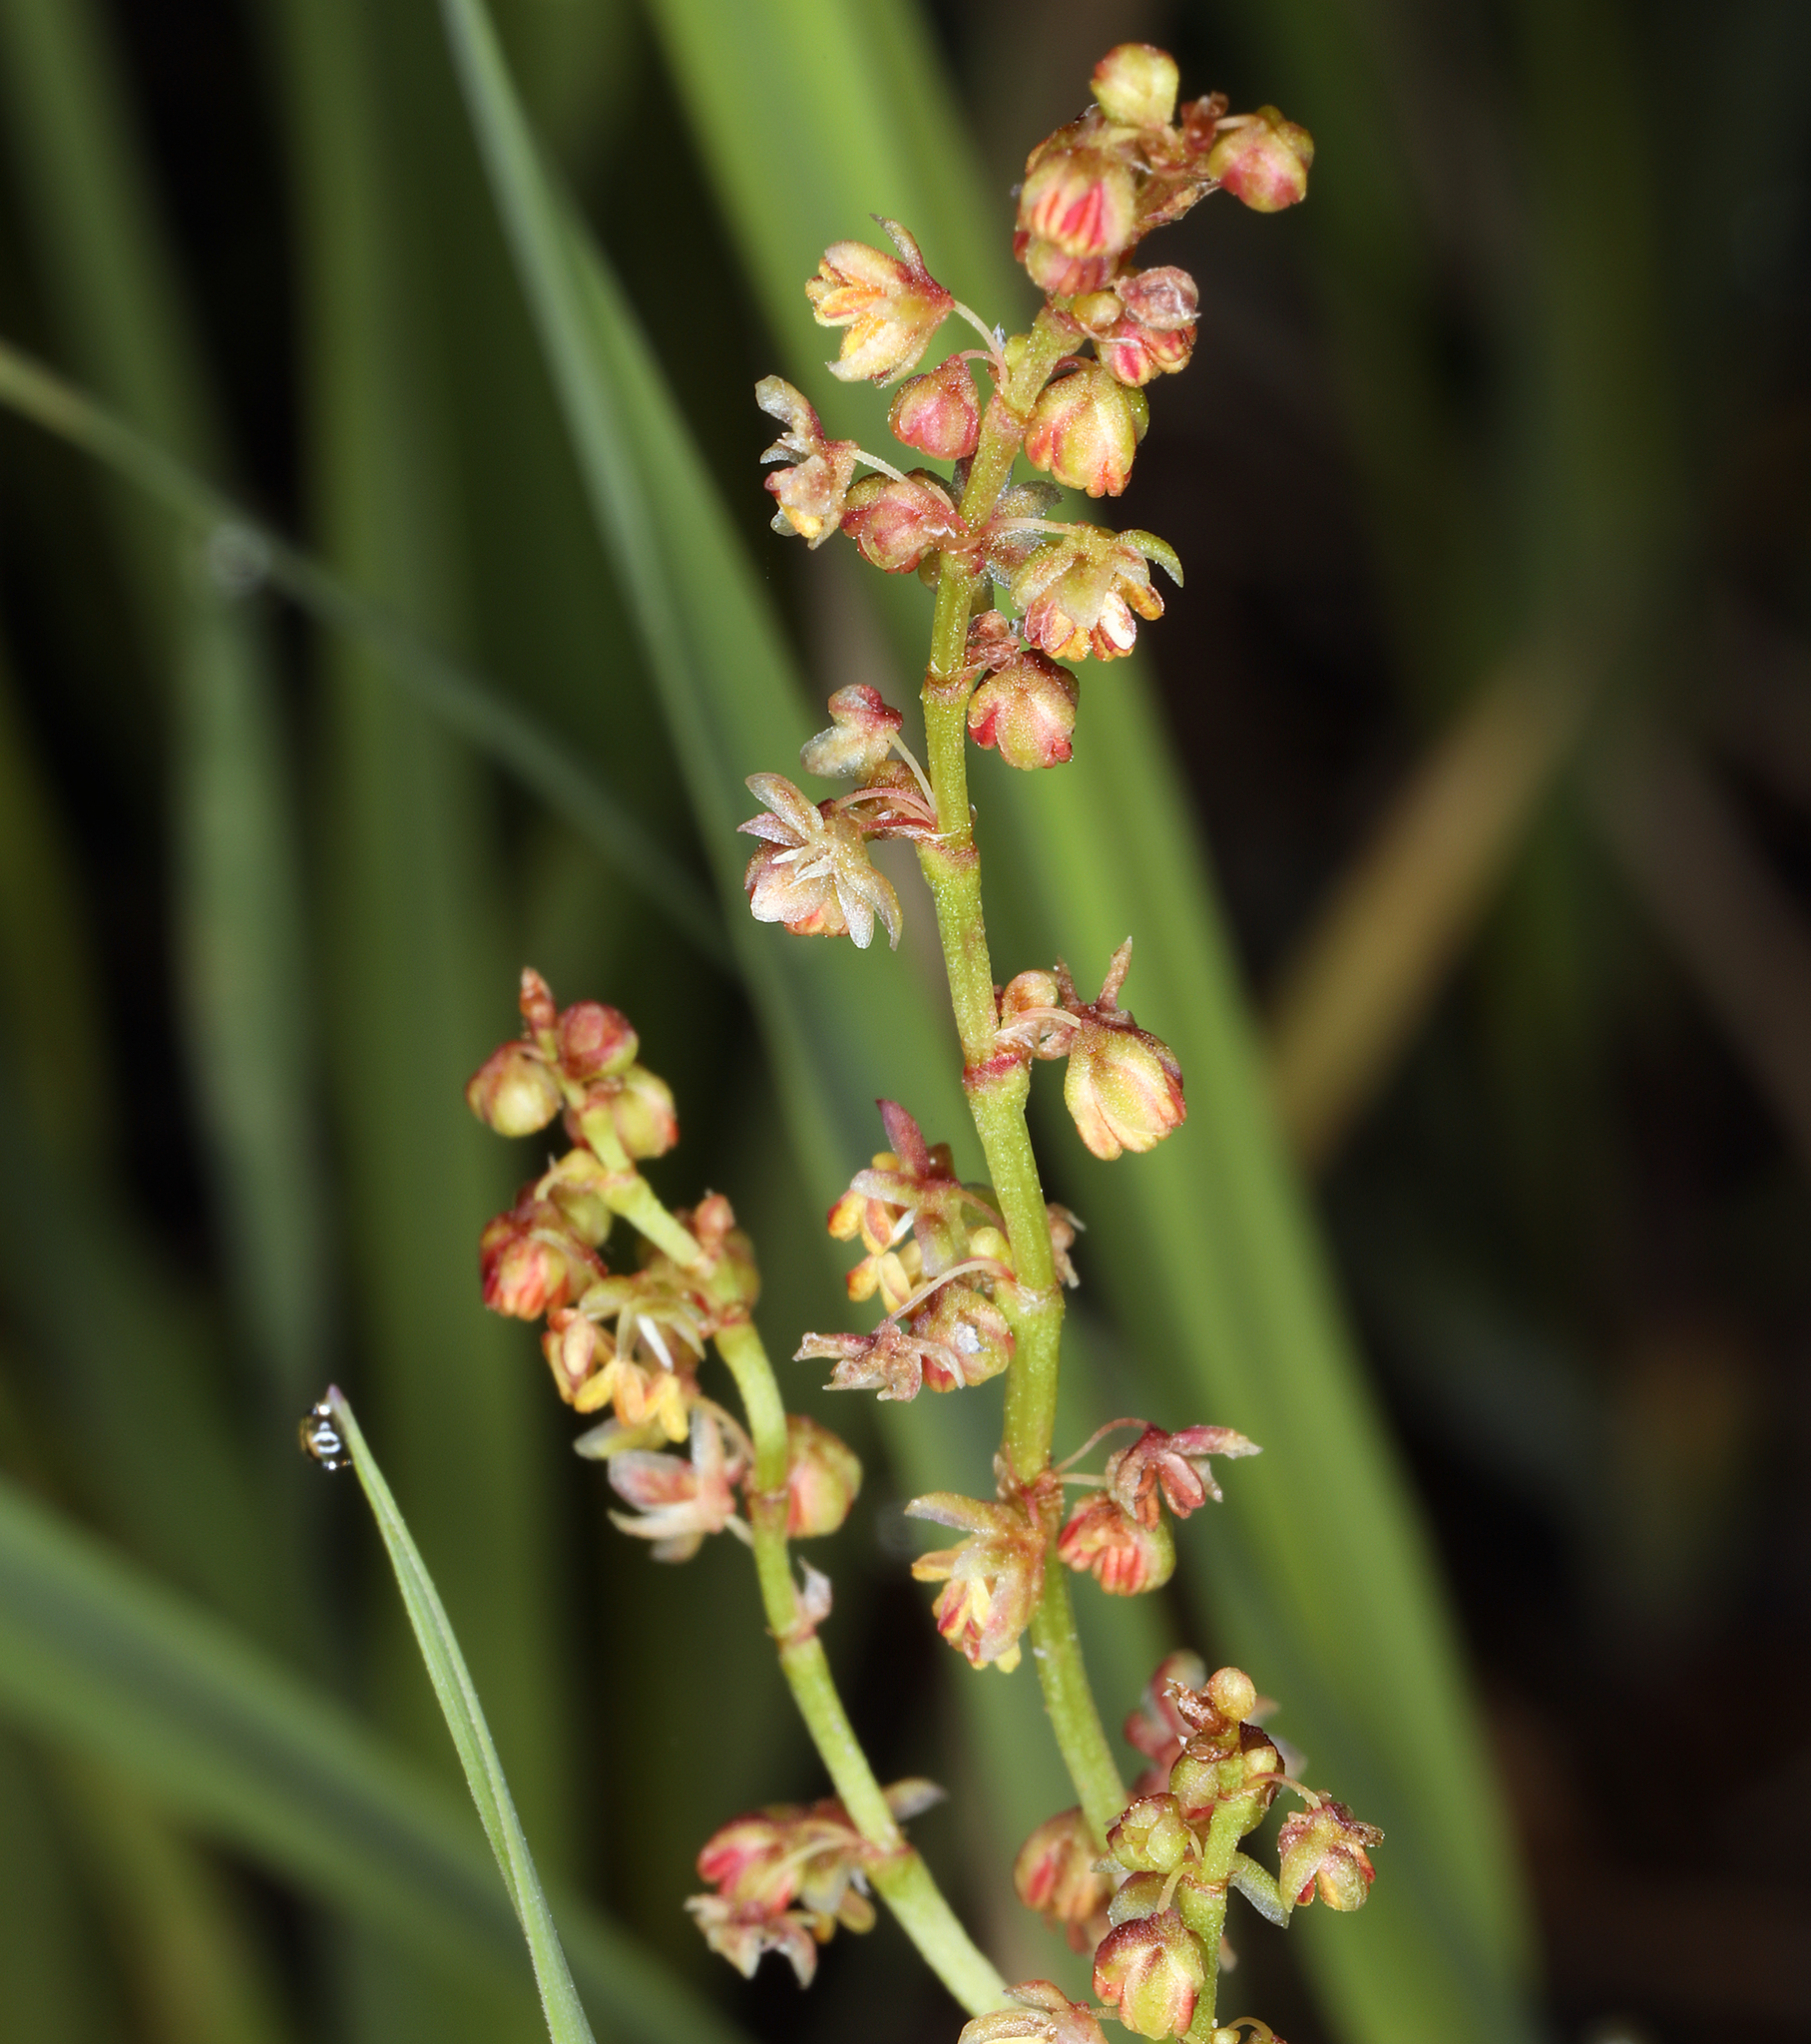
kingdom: Plantae
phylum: Tracheophyta
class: Magnoliopsida
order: Caryophyllales
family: Polygonaceae
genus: Rumex
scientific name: Rumex acetosella
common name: Common sheep sorrel
